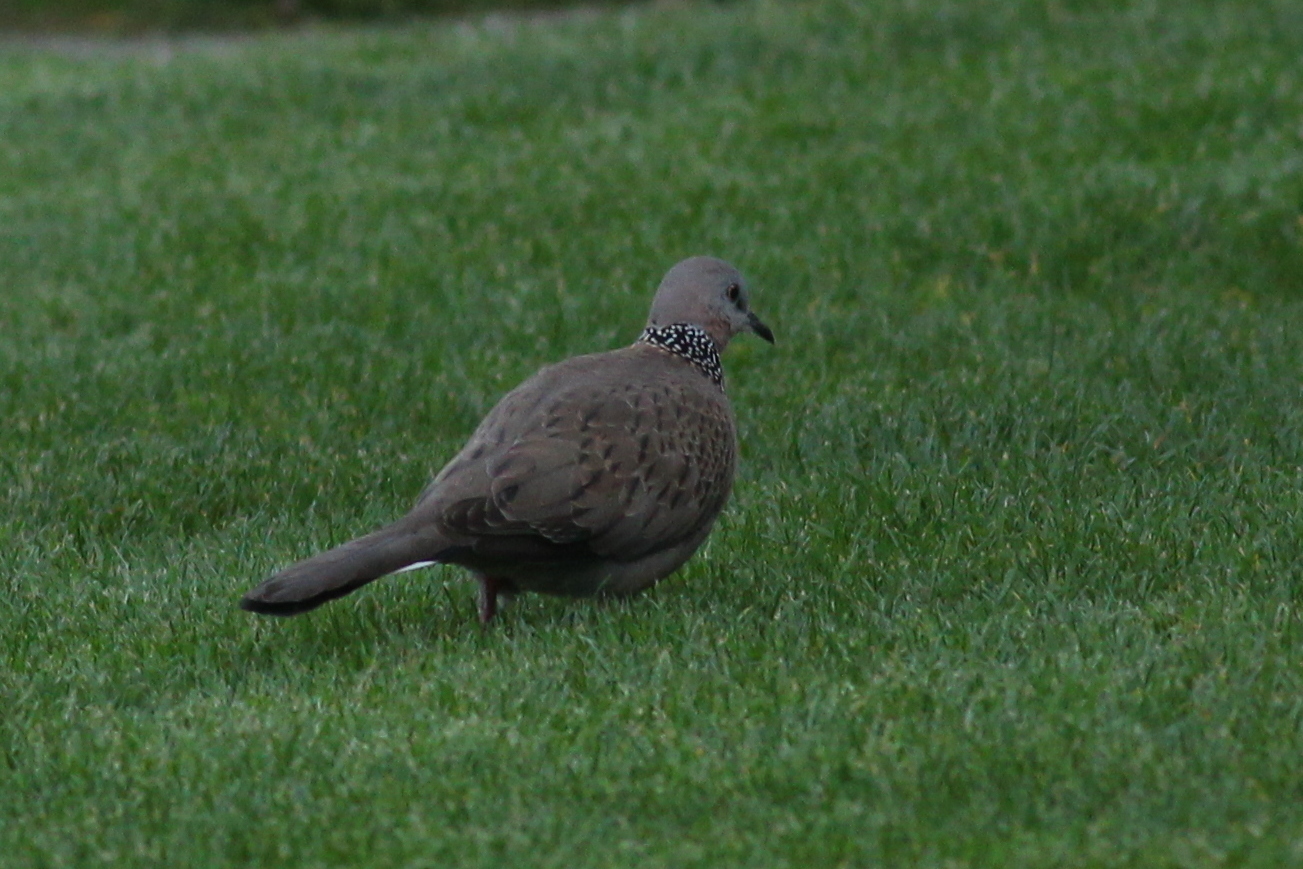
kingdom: Animalia
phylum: Chordata
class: Aves
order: Columbiformes
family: Columbidae
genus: Spilopelia
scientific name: Spilopelia chinensis
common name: Spotted dove
